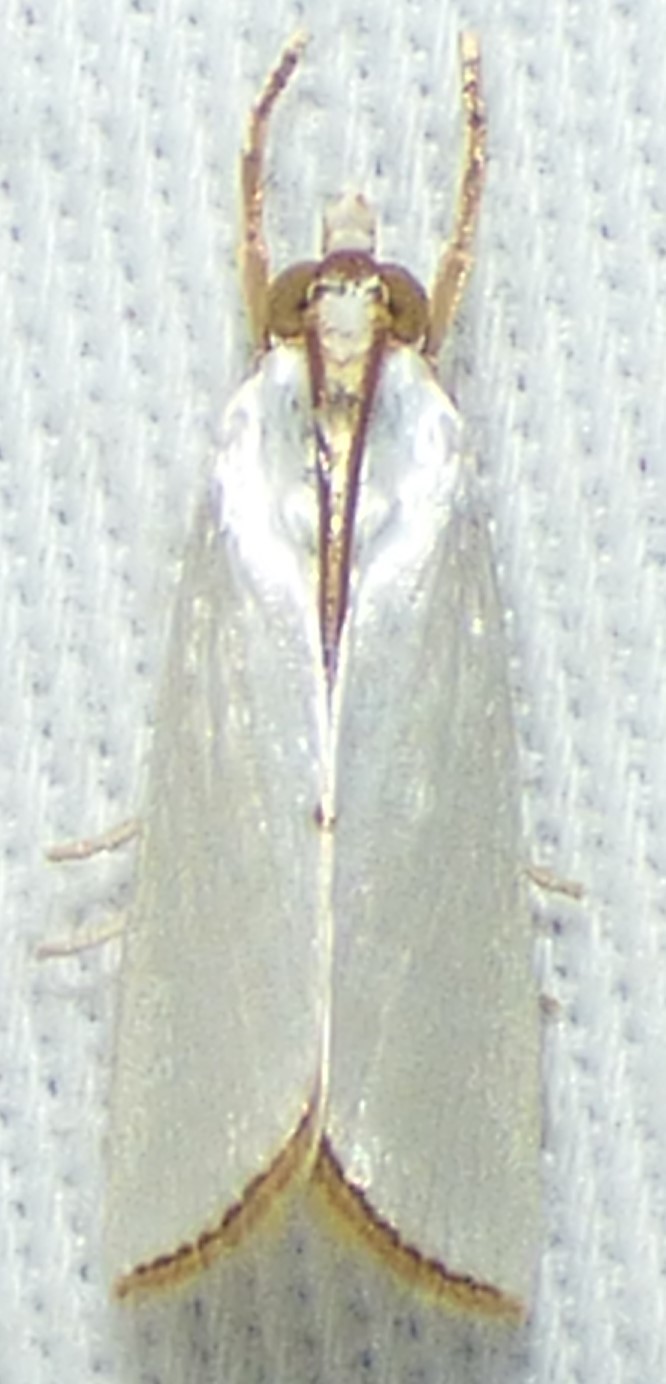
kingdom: Animalia
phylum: Arthropoda
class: Insecta
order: Lepidoptera
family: Crambidae
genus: Argyria
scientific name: Argyria nivalis
